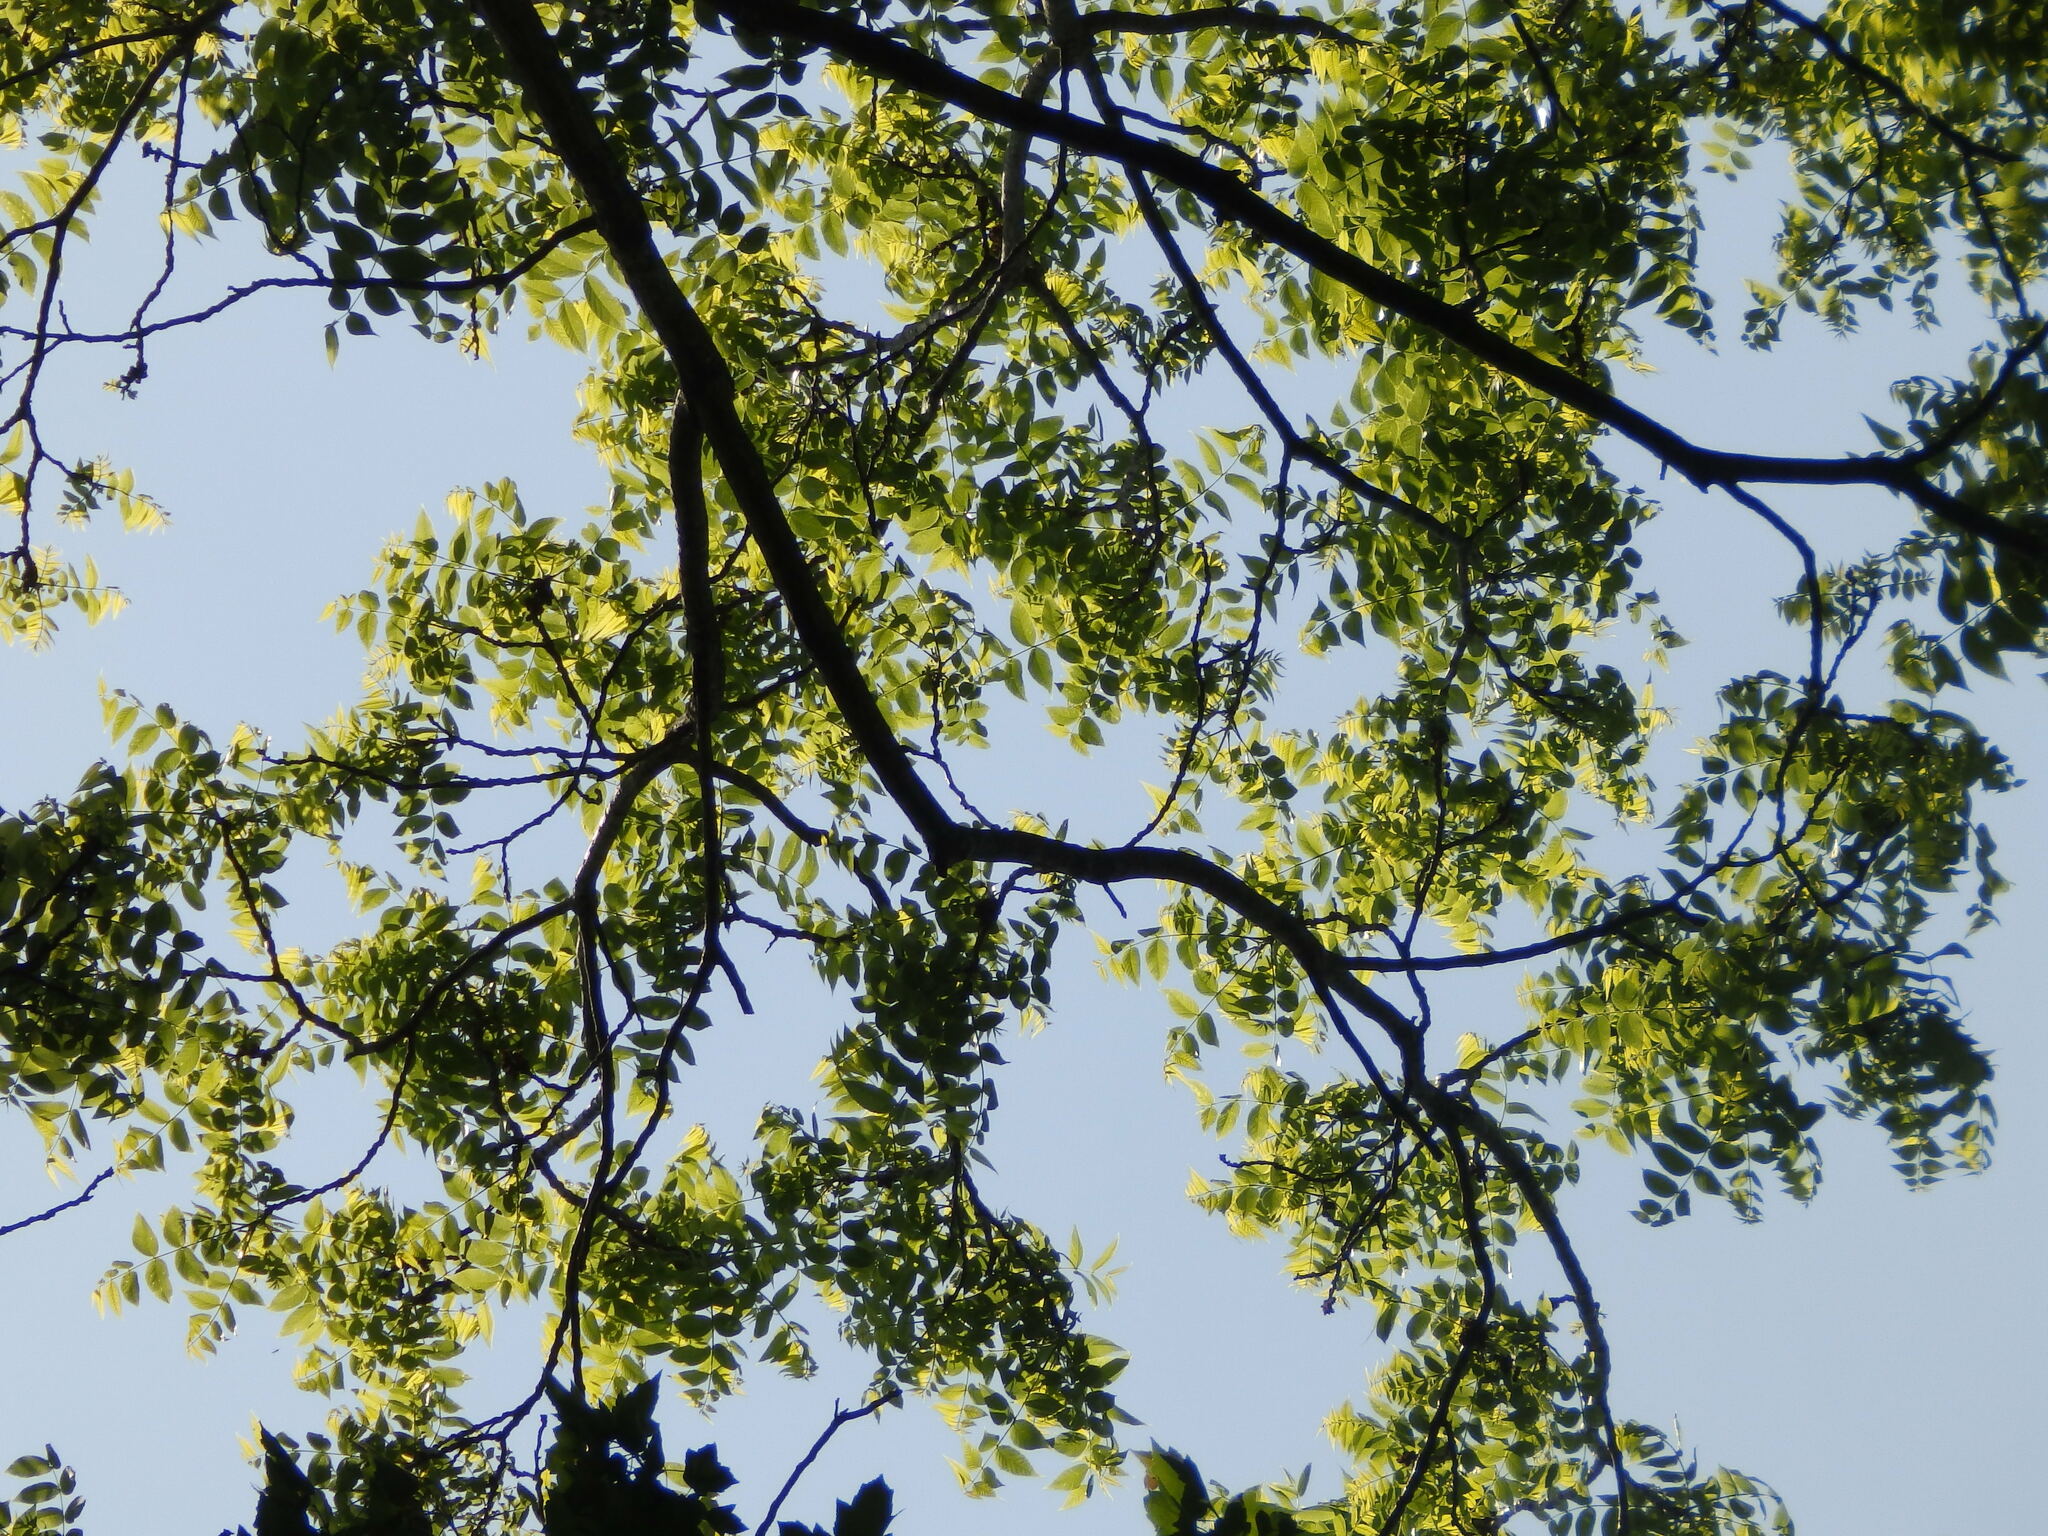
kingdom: Plantae
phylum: Tracheophyta
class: Magnoliopsida
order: Fagales
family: Juglandaceae
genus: Juglans
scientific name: Juglans nigra
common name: Black walnut
